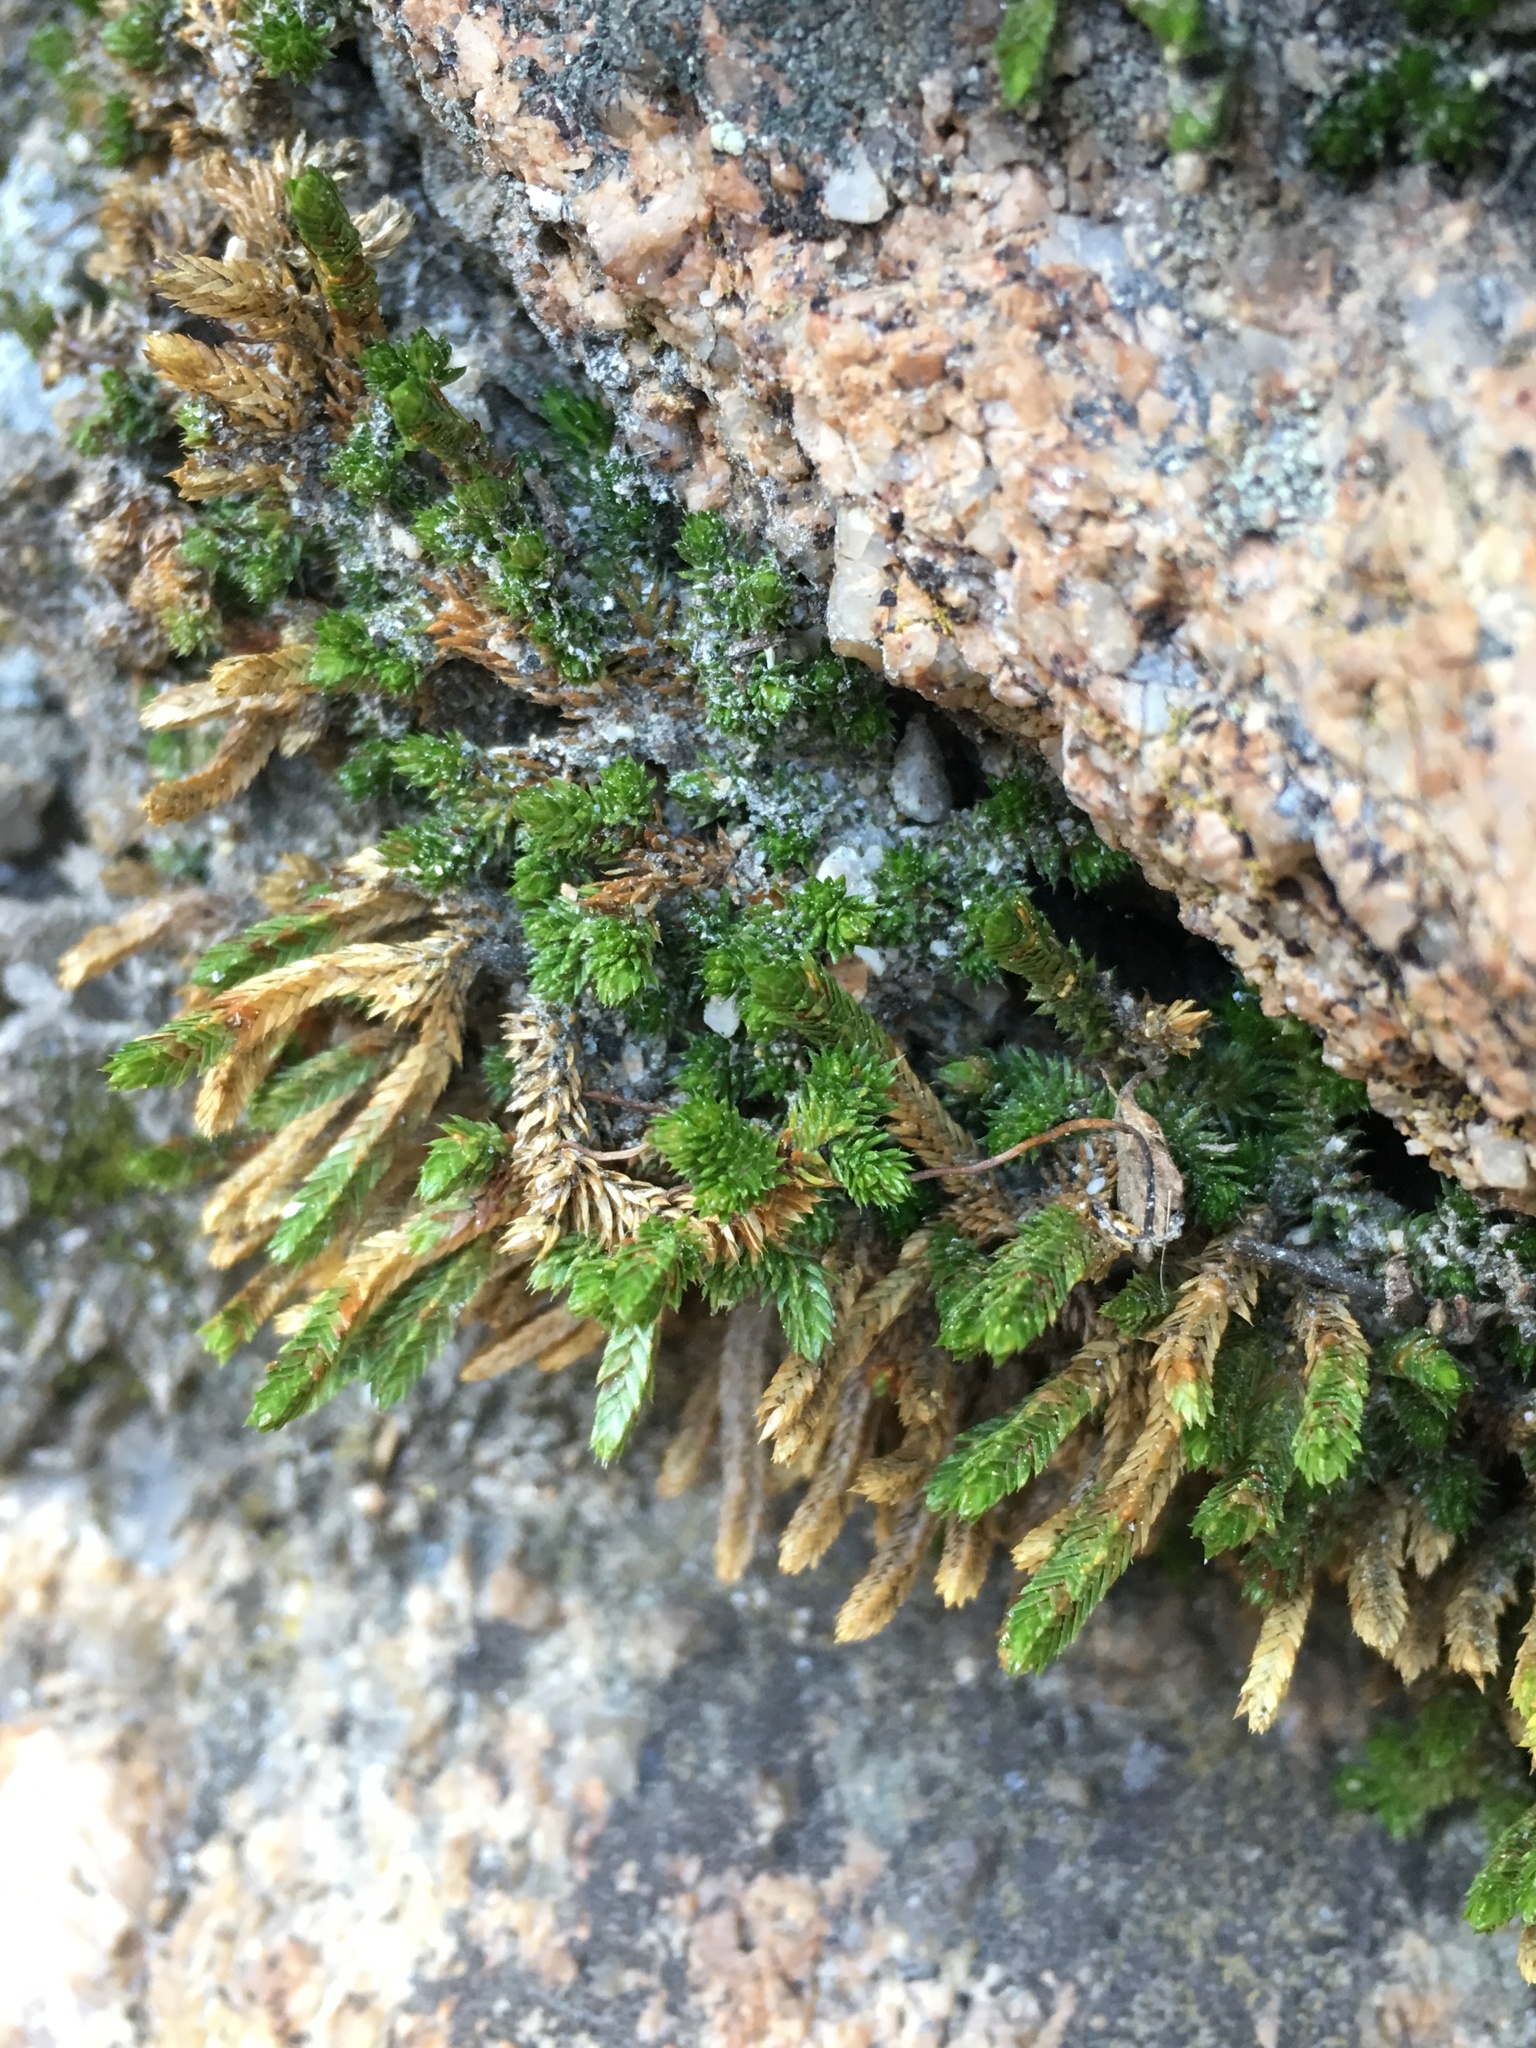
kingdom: Plantae
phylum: Tracheophyta
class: Lycopodiopsida
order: Selaginellales
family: Selaginellaceae
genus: Selaginella
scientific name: Selaginella watsonii
